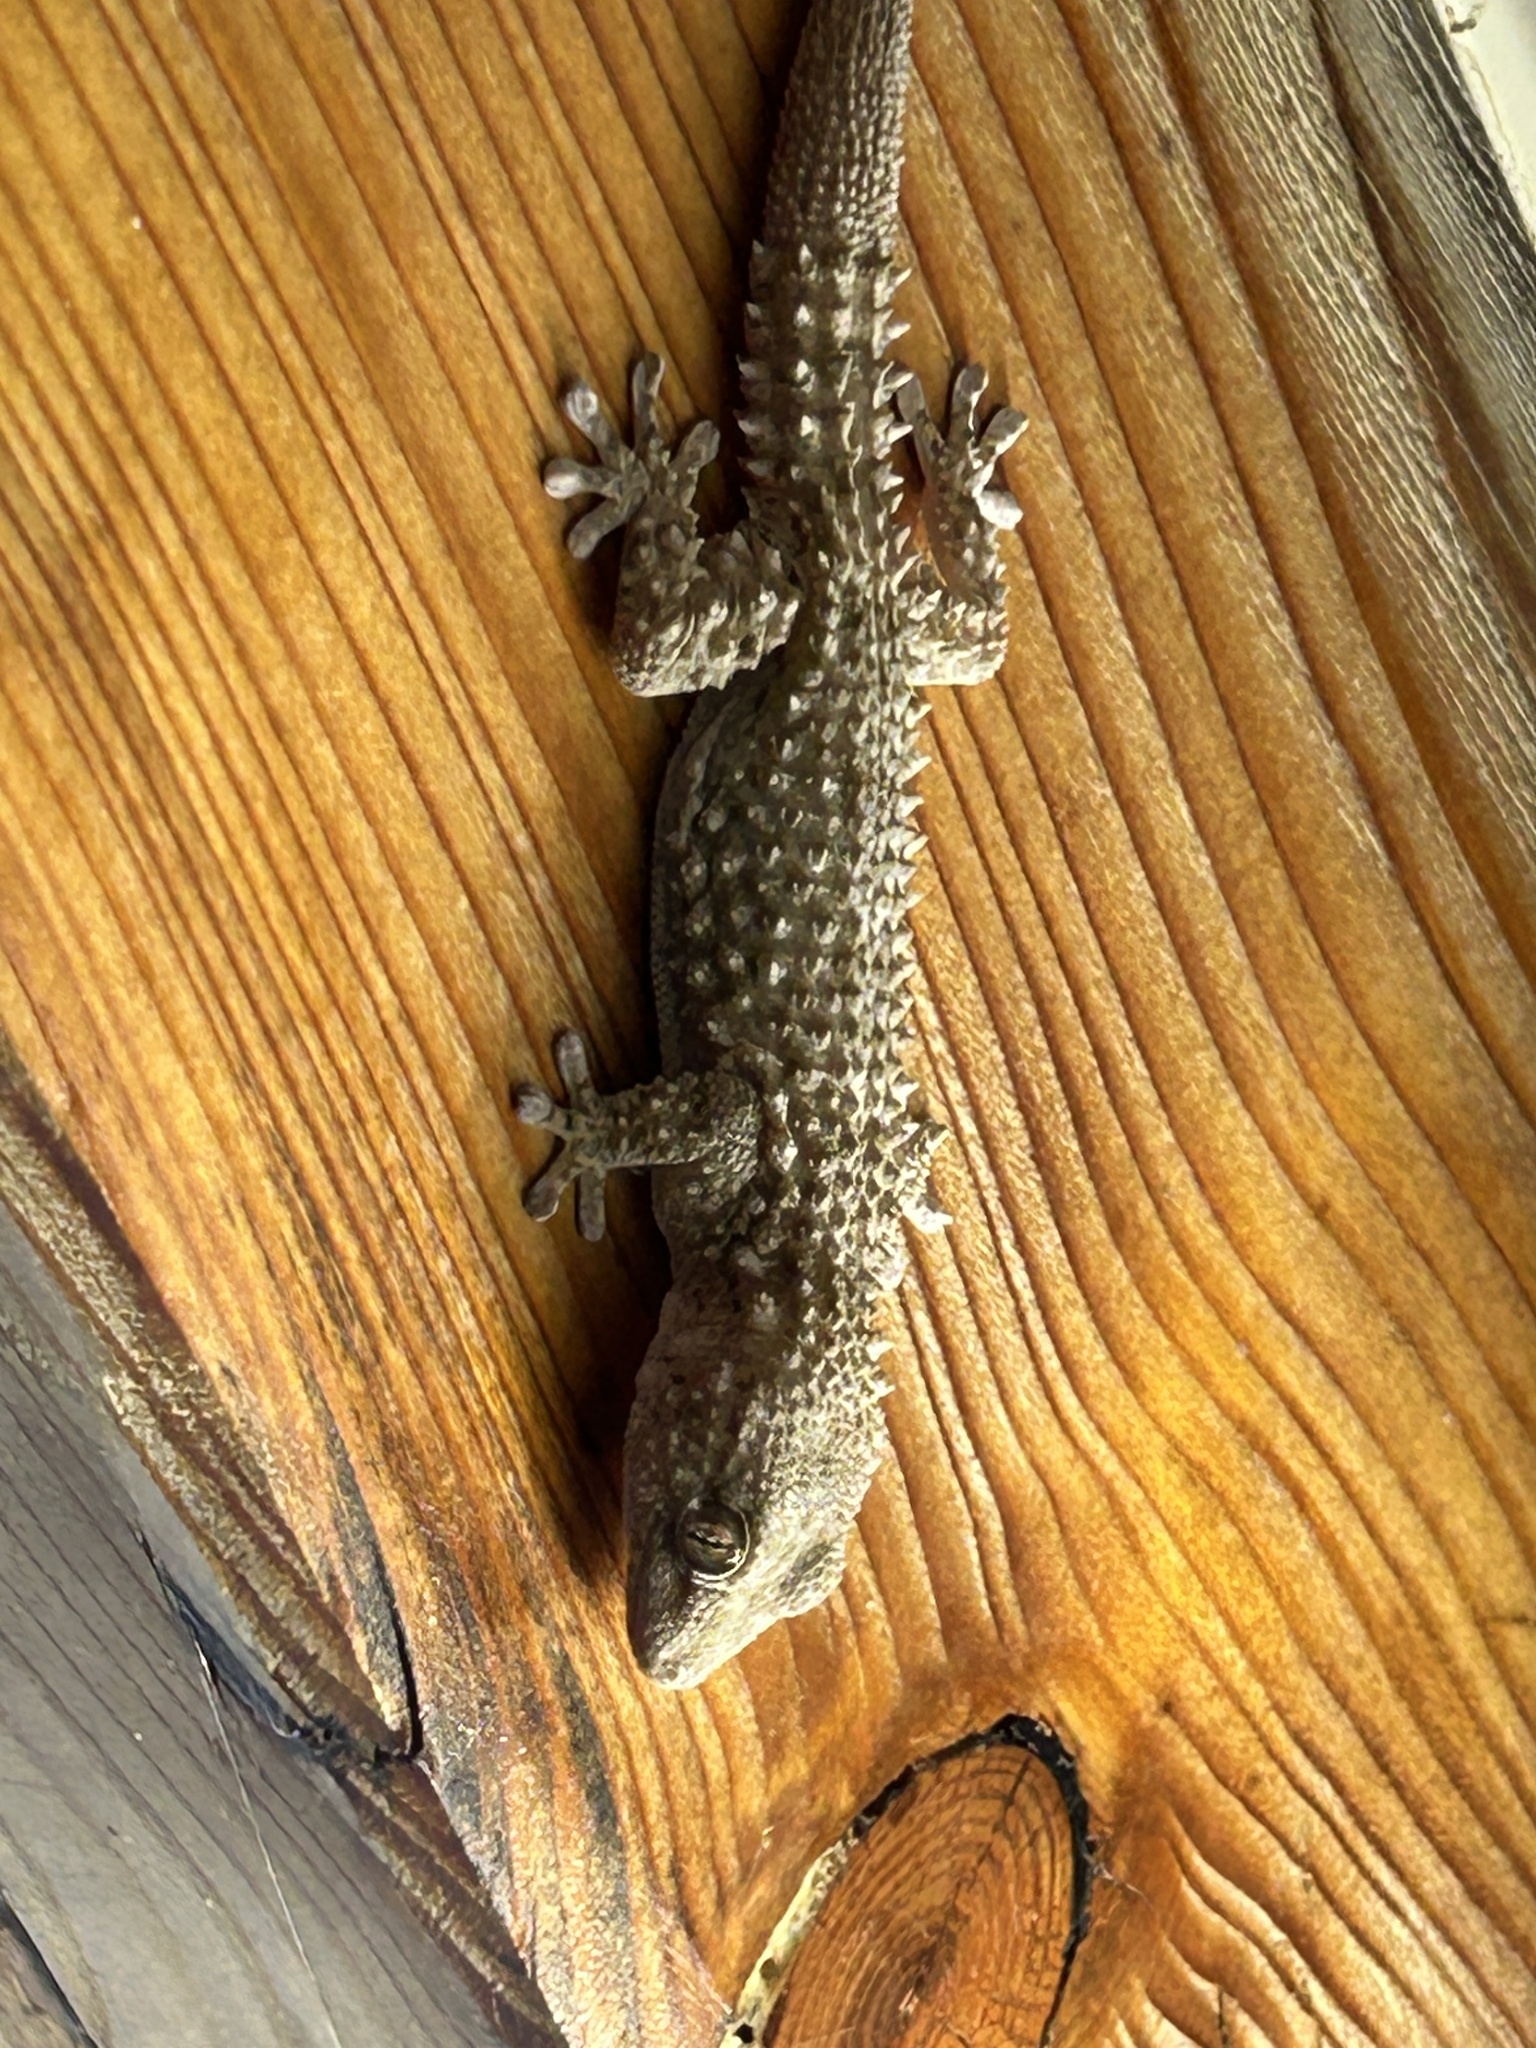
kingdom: Animalia
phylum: Chordata
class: Squamata
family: Phyllodactylidae
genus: Tarentola
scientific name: Tarentola mauritanica
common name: Moorish gecko
